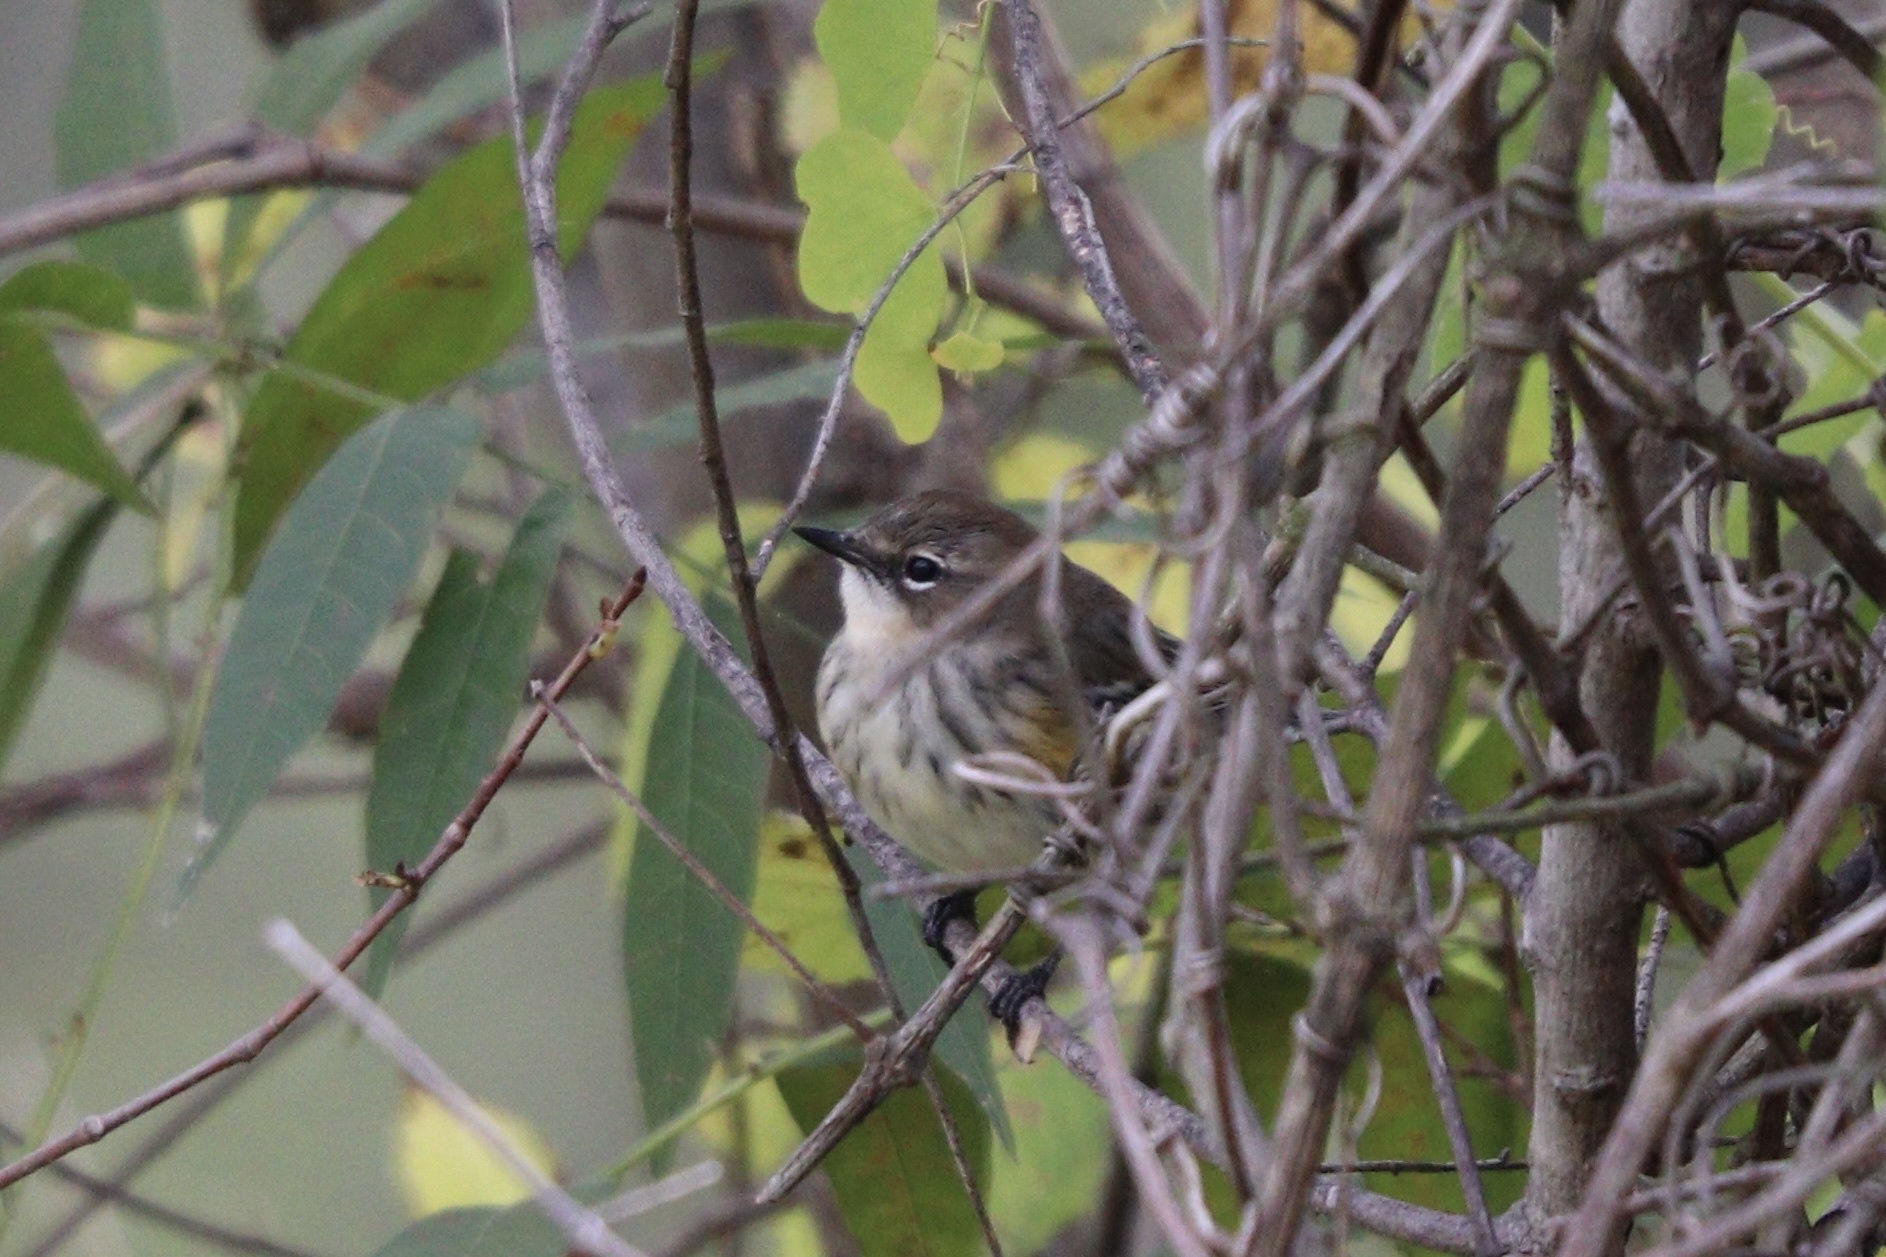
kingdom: Animalia
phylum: Chordata
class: Aves
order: Passeriformes
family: Parulidae
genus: Setophaga
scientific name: Setophaga coronata
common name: Myrtle warbler
